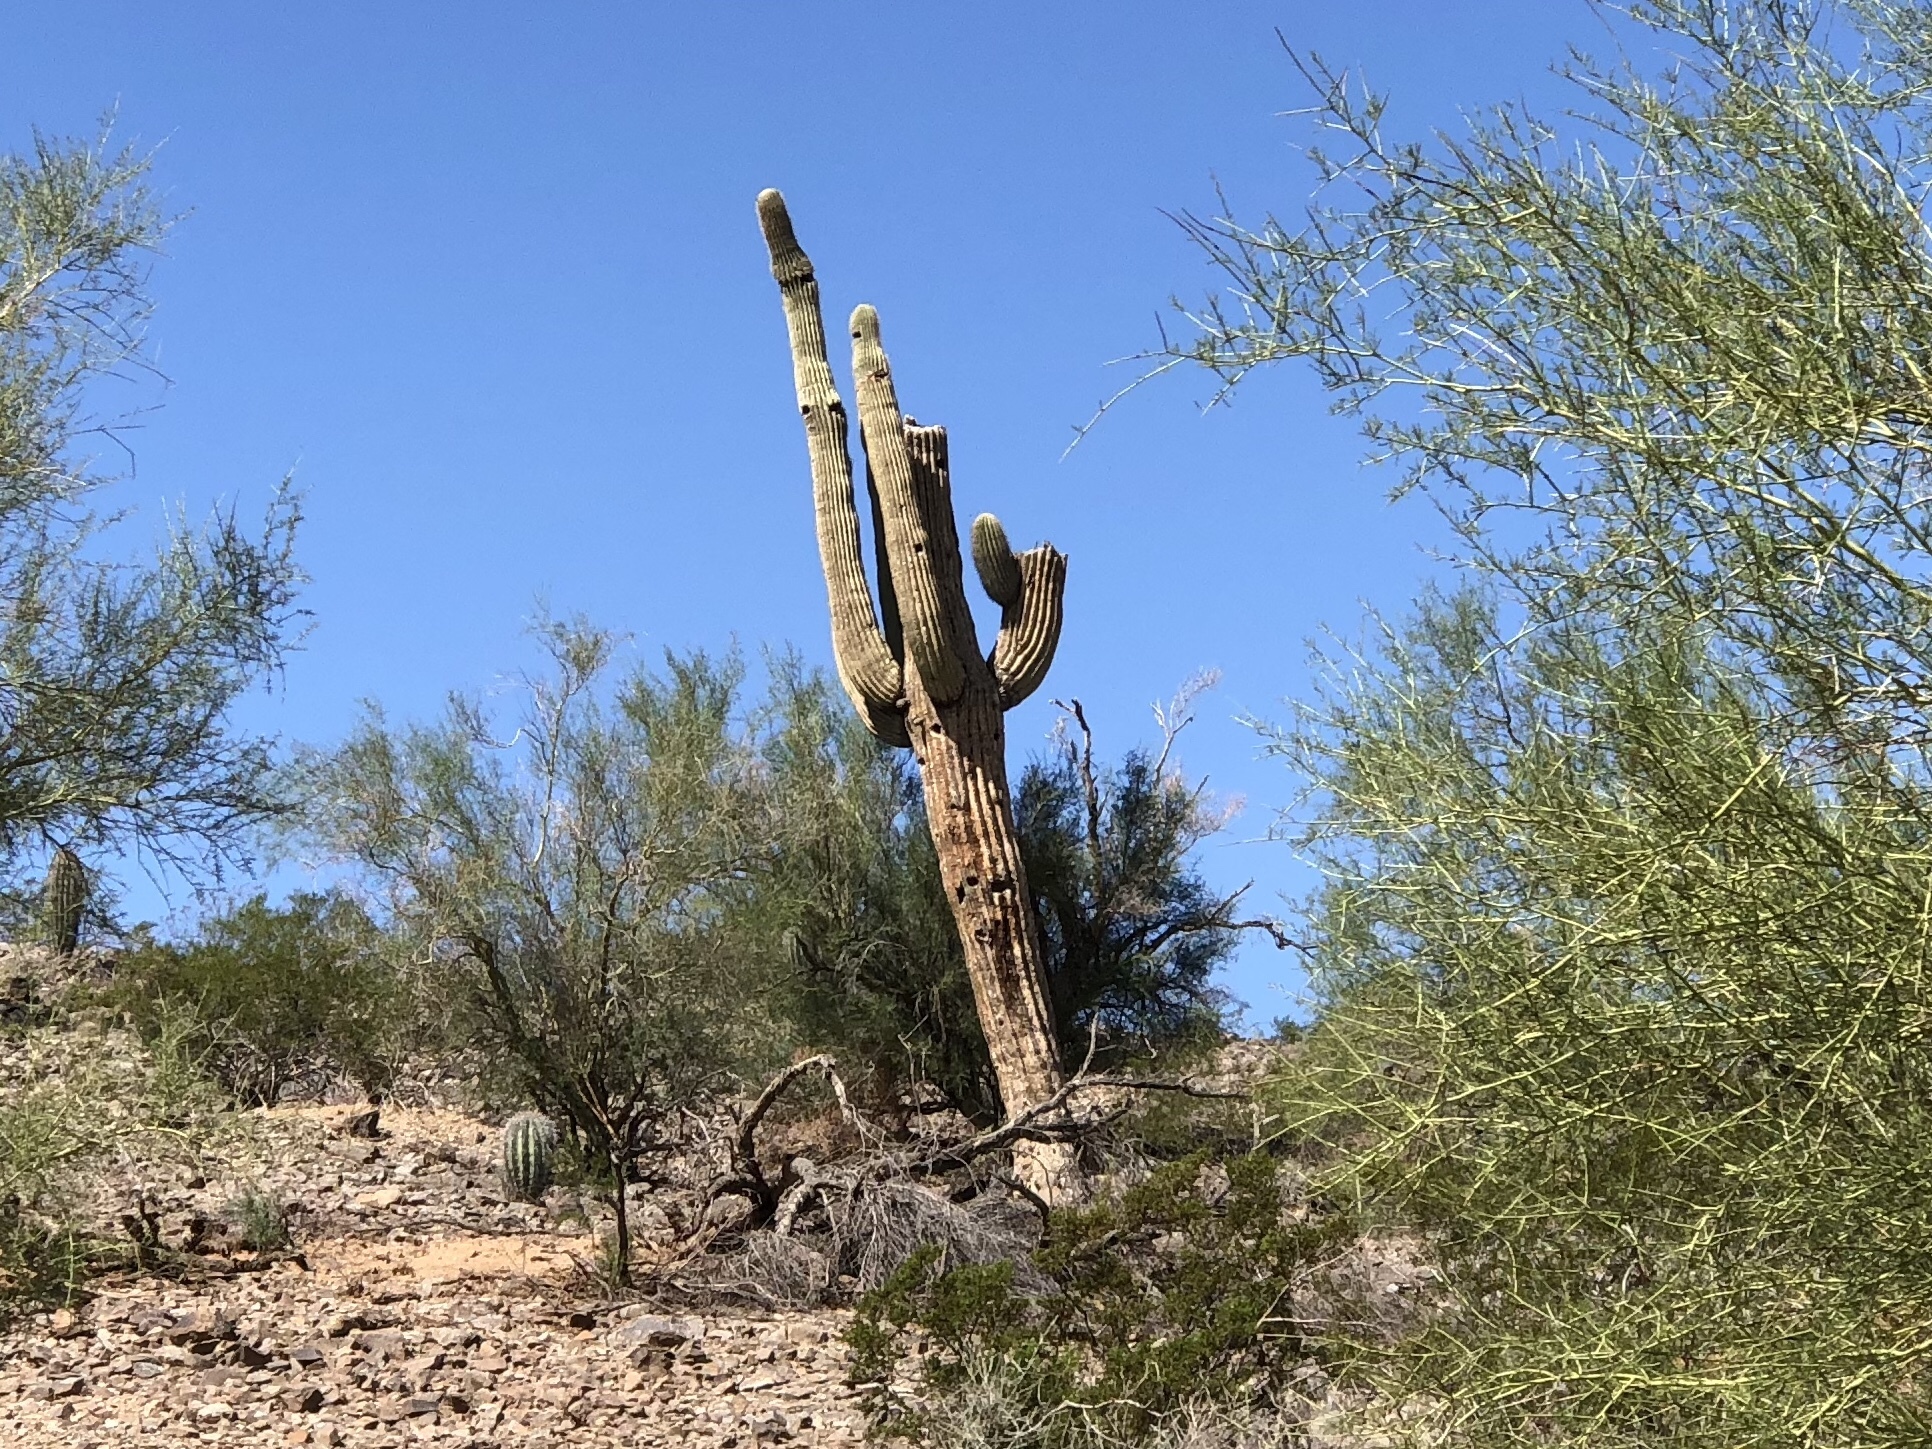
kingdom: Plantae
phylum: Tracheophyta
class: Magnoliopsida
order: Caryophyllales
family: Cactaceae
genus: Carnegiea
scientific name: Carnegiea gigantea
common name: Saguaro
